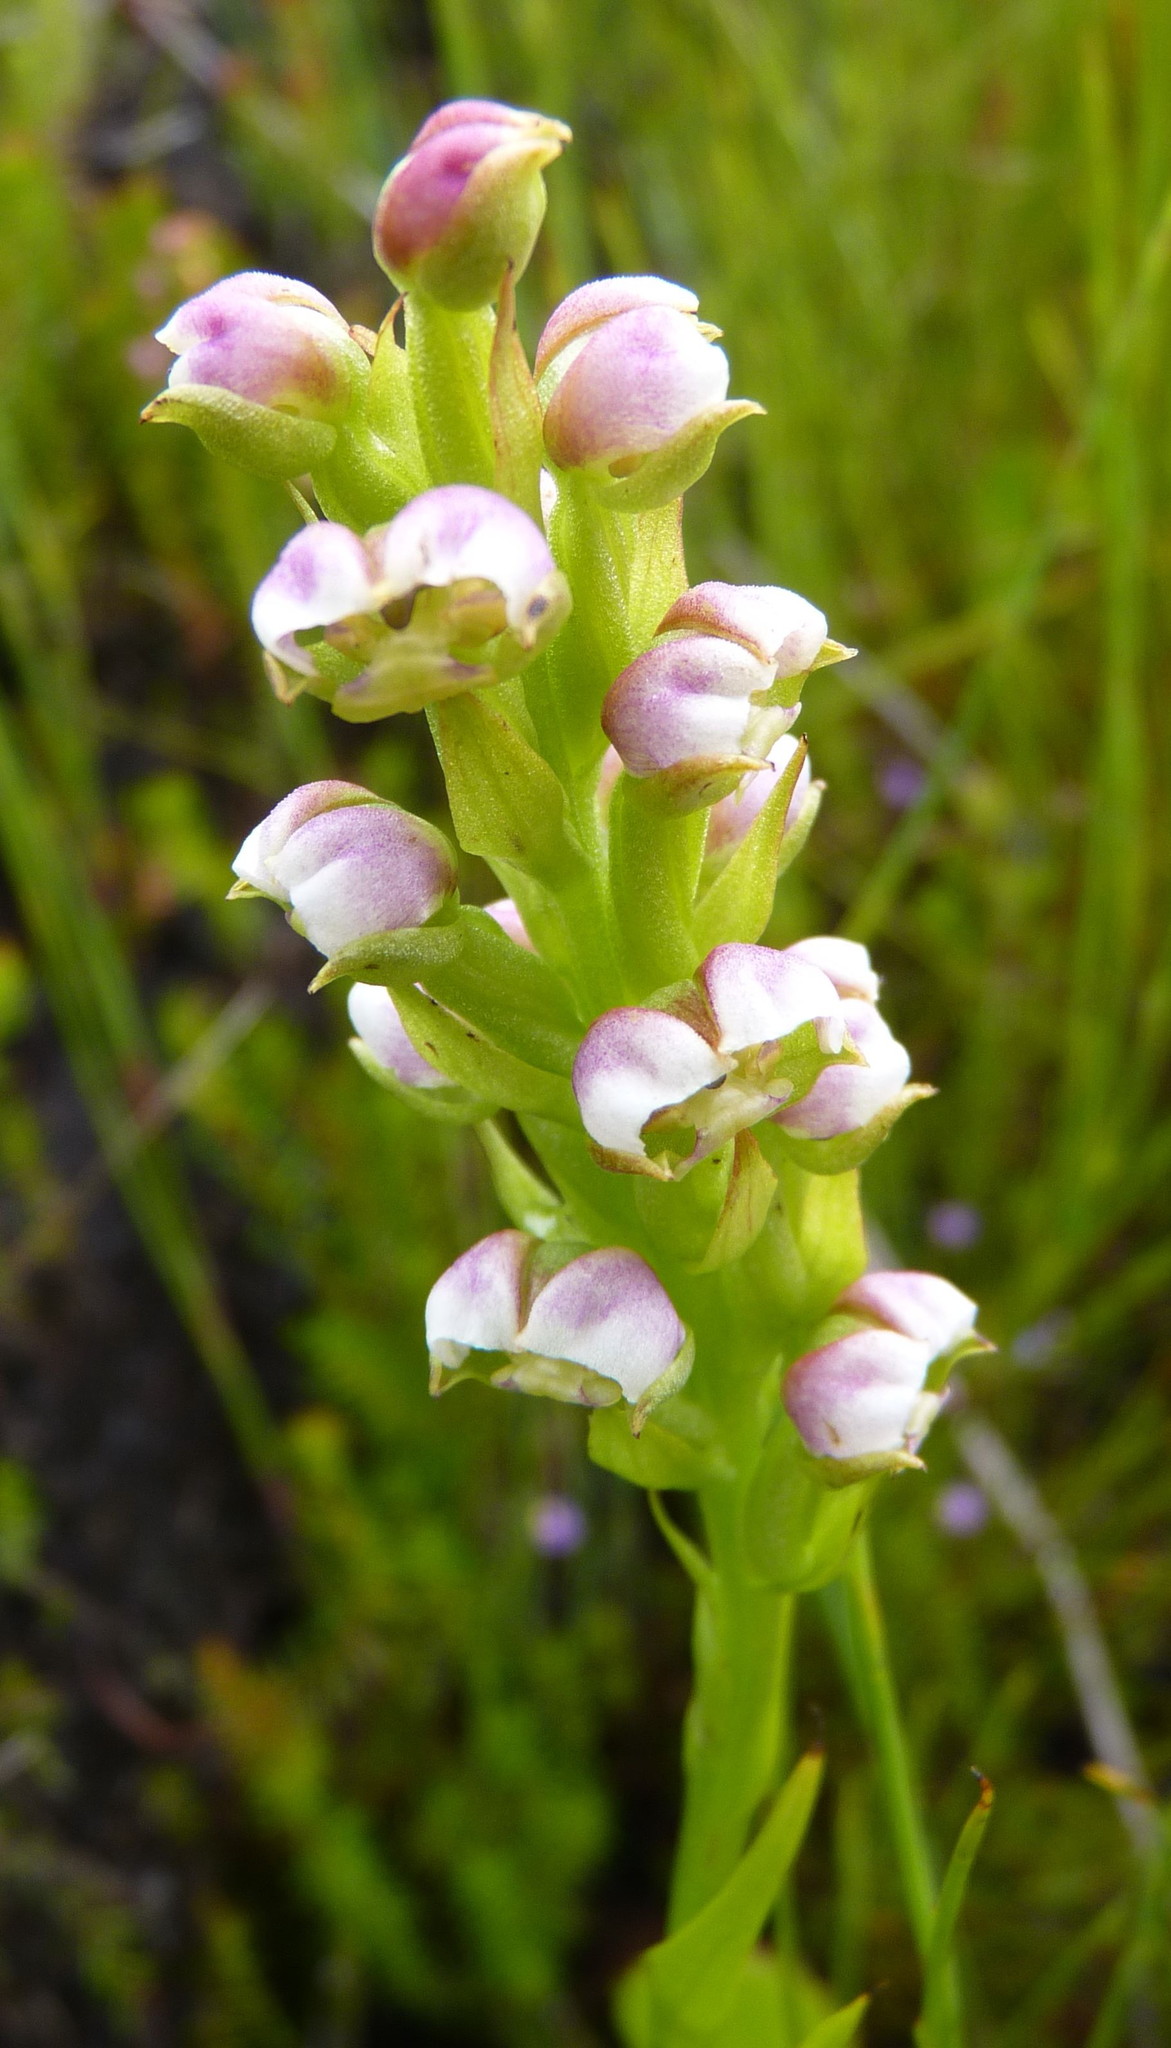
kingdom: Plantae
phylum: Tracheophyta
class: Liliopsida
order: Asparagales
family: Orchidaceae
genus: Evotella
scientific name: Evotella carnosa
